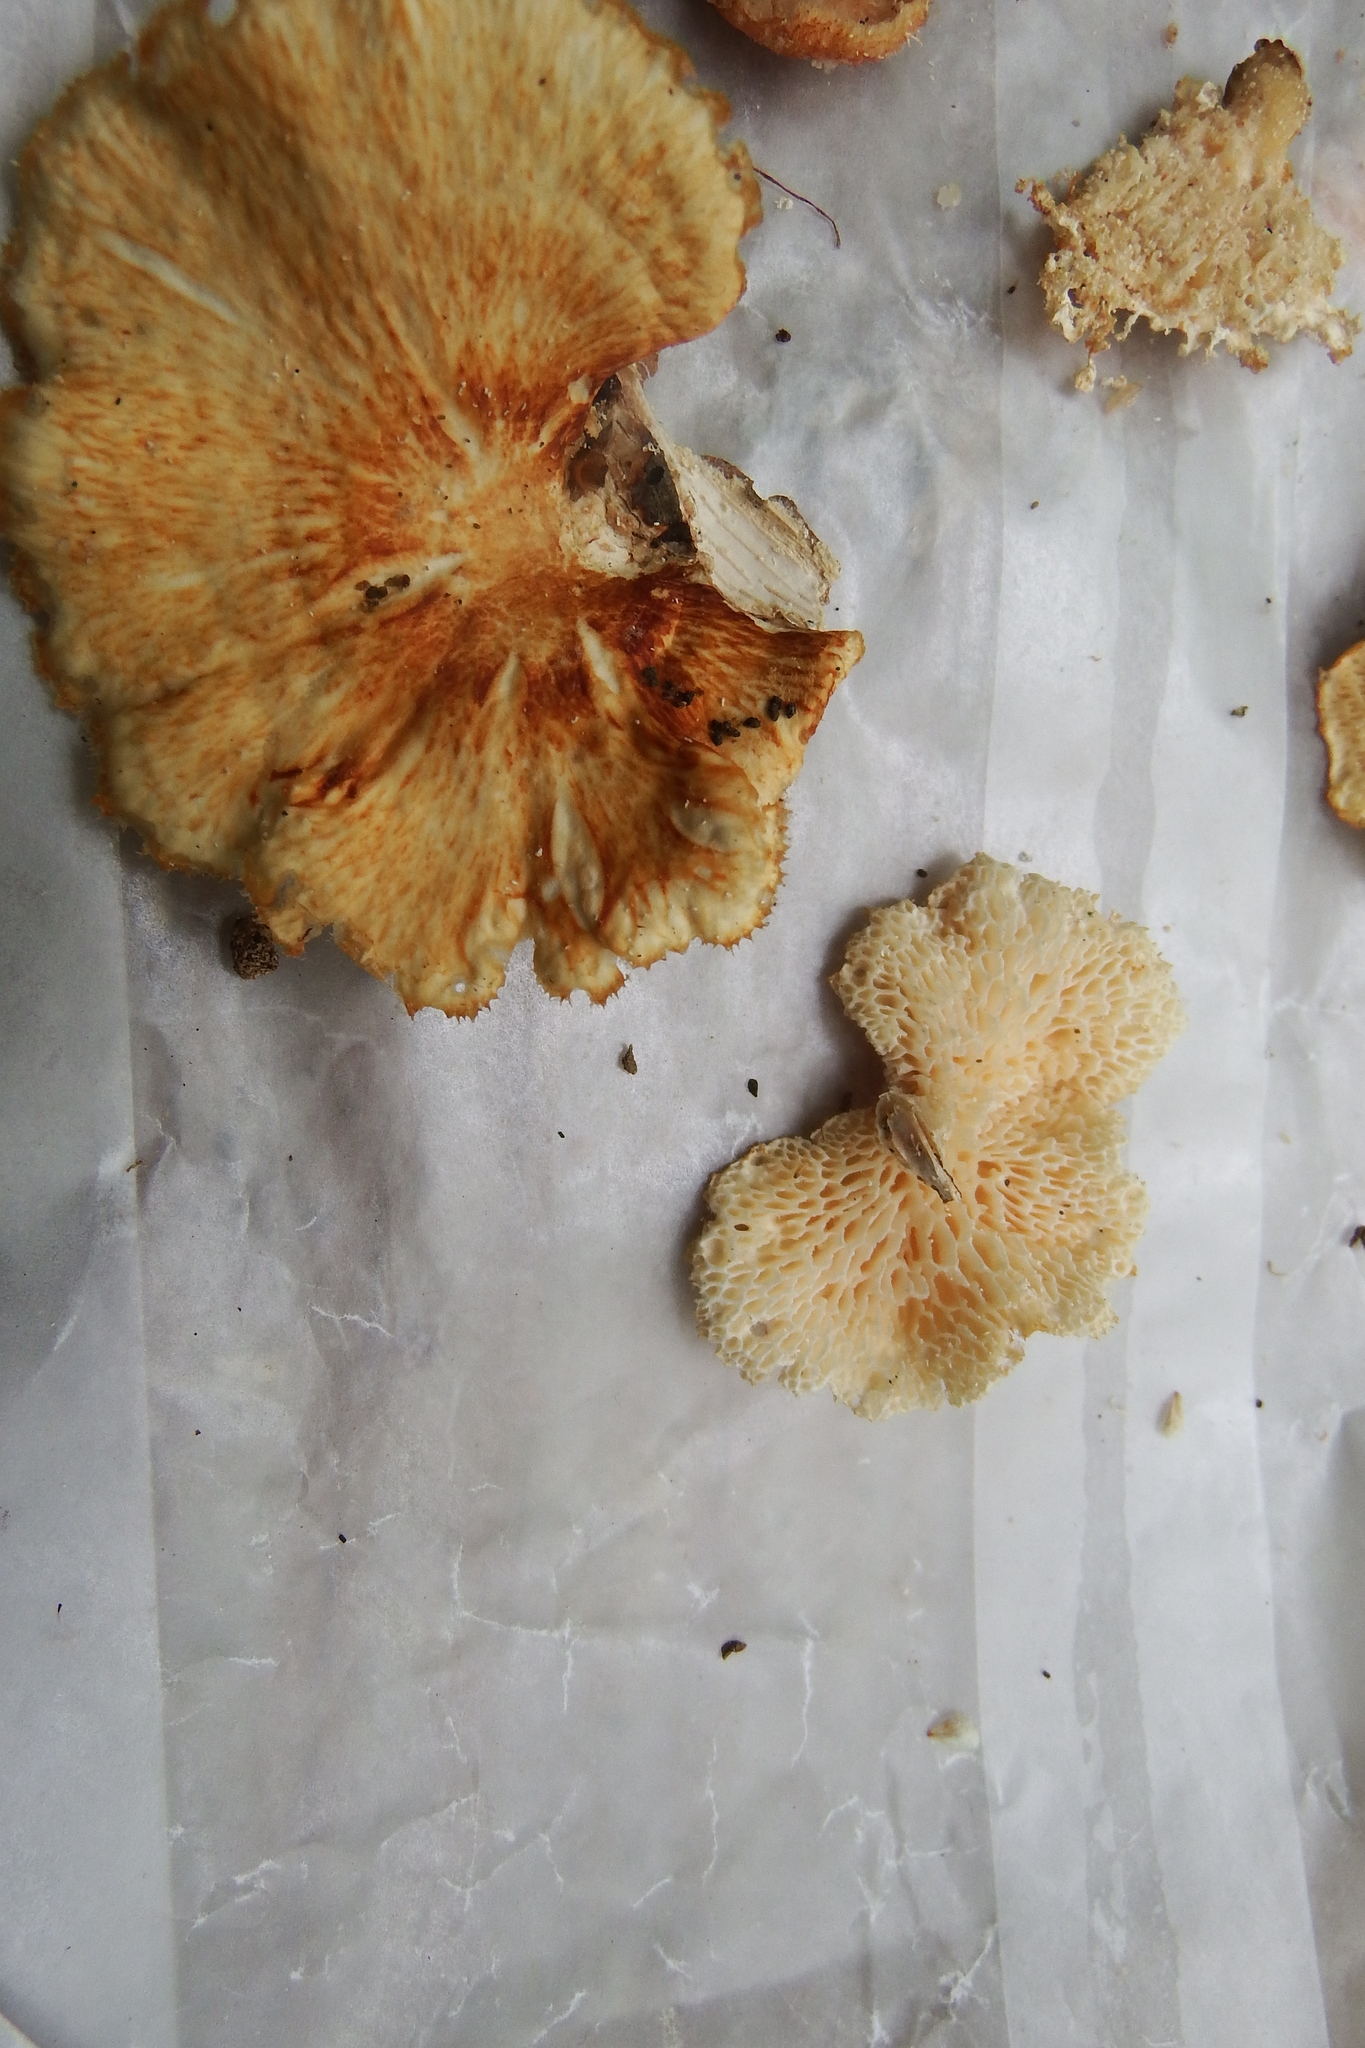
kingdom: Fungi
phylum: Basidiomycota
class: Agaricomycetes
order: Polyporales
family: Polyporaceae
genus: Neofavolus
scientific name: Neofavolus alveolaris
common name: Hexagonal-pored polypore
